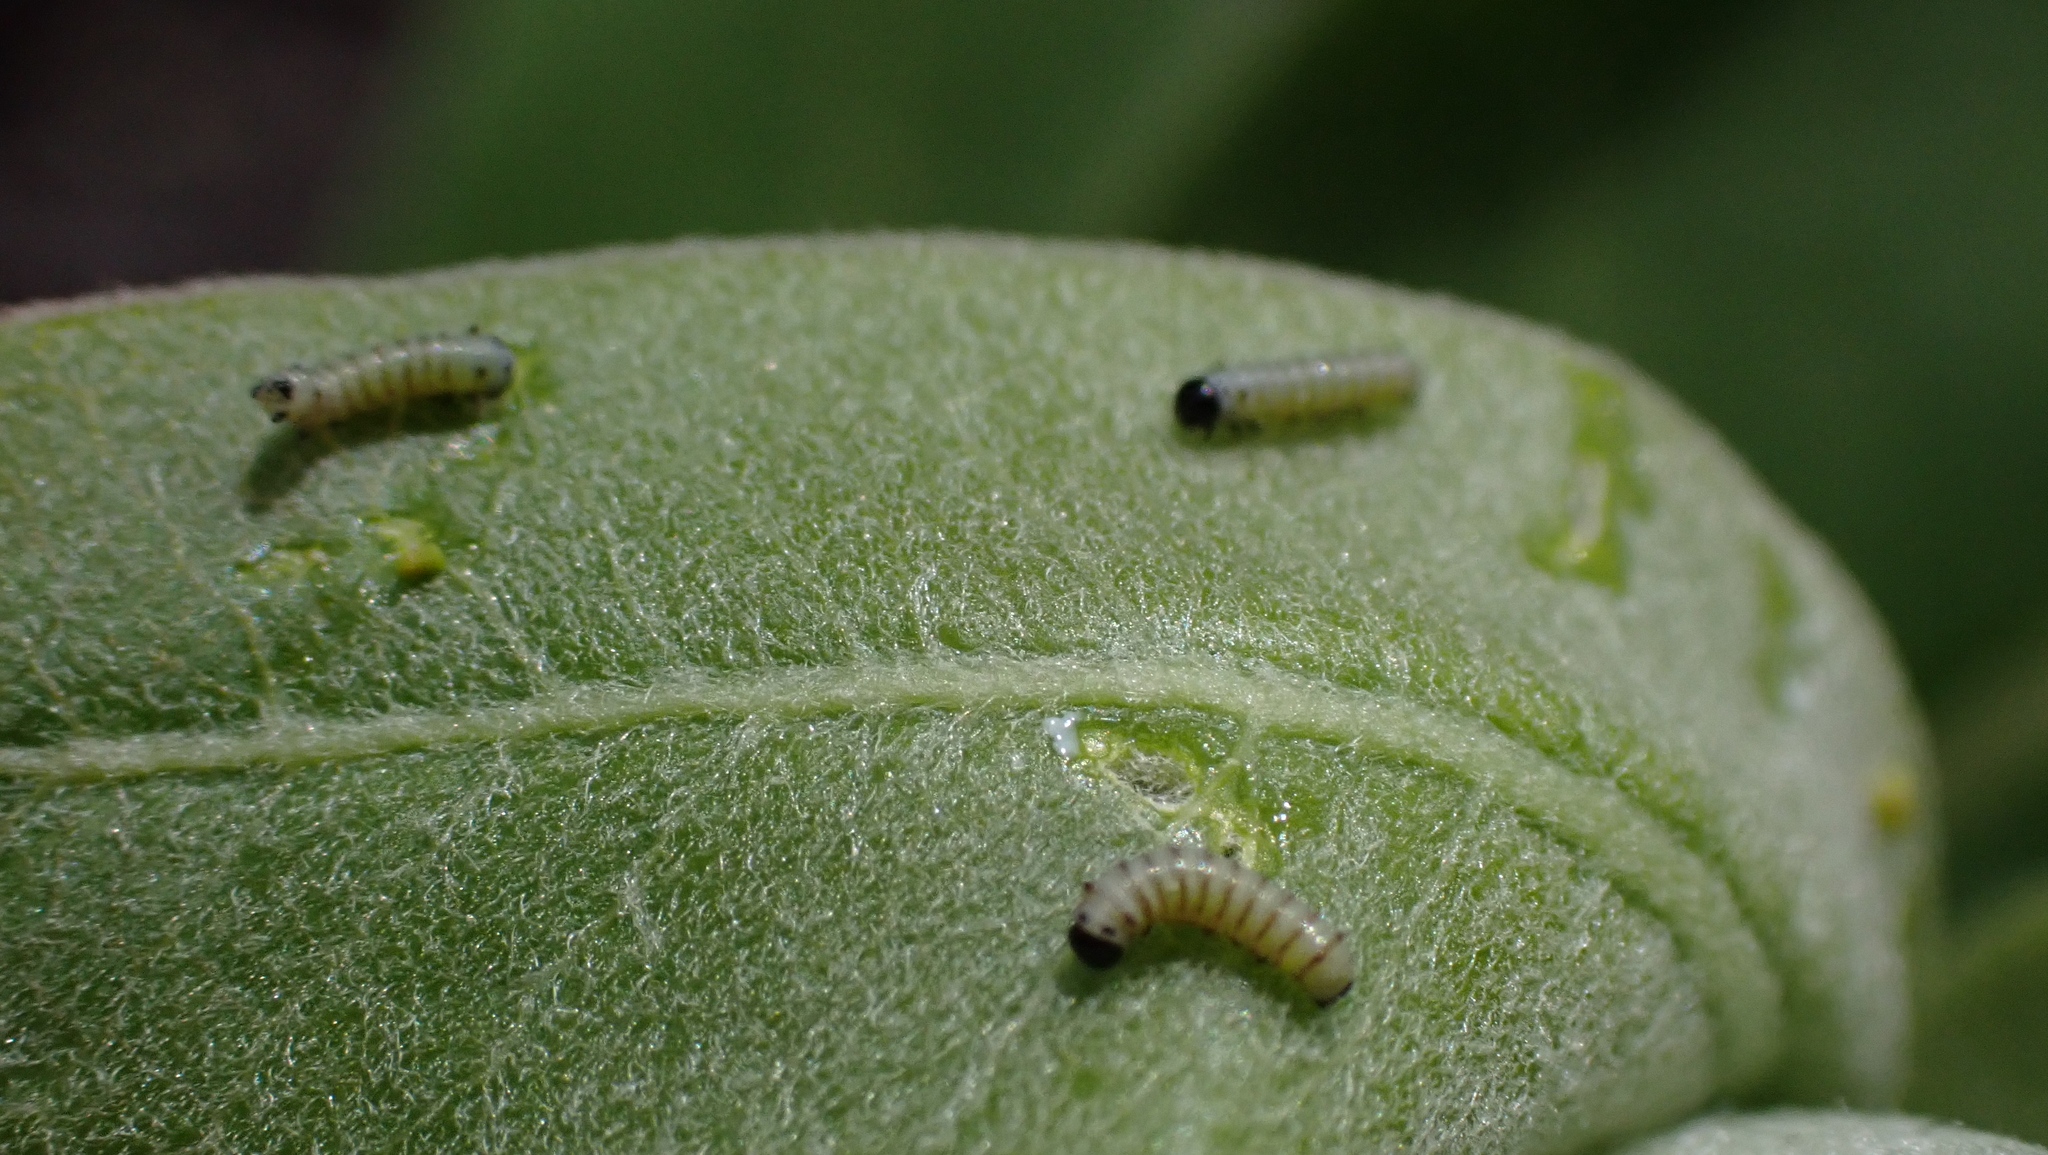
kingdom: Animalia
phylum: Arthropoda
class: Insecta
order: Lepidoptera
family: Nymphalidae
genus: Danaus
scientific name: Danaus plexippus
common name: Monarch
